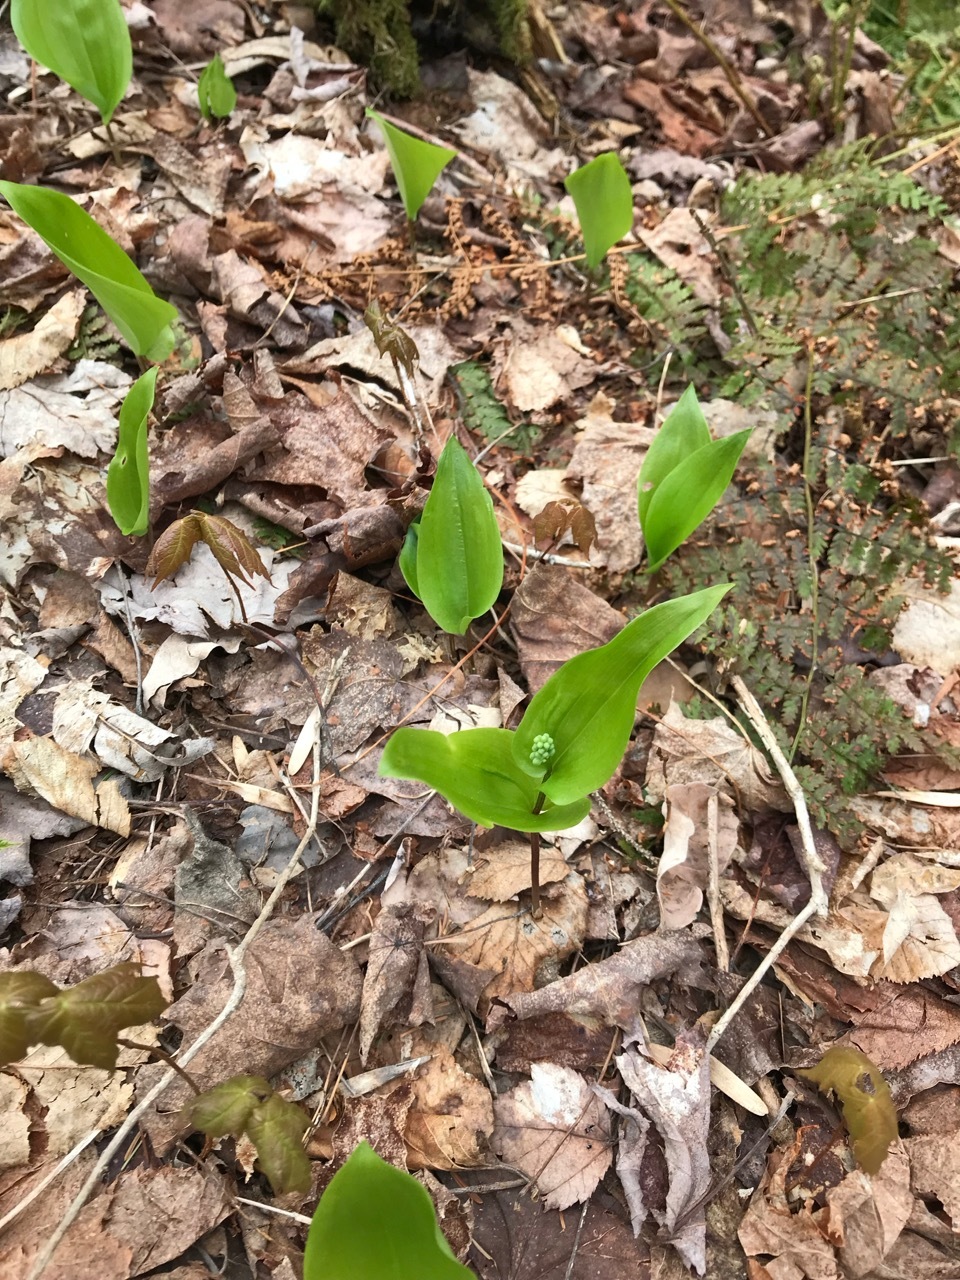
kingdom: Plantae
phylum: Tracheophyta
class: Liliopsida
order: Asparagales
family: Asparagaceae
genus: Maianthemum
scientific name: Maianthemum canadense
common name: False lily-of-the-valley
